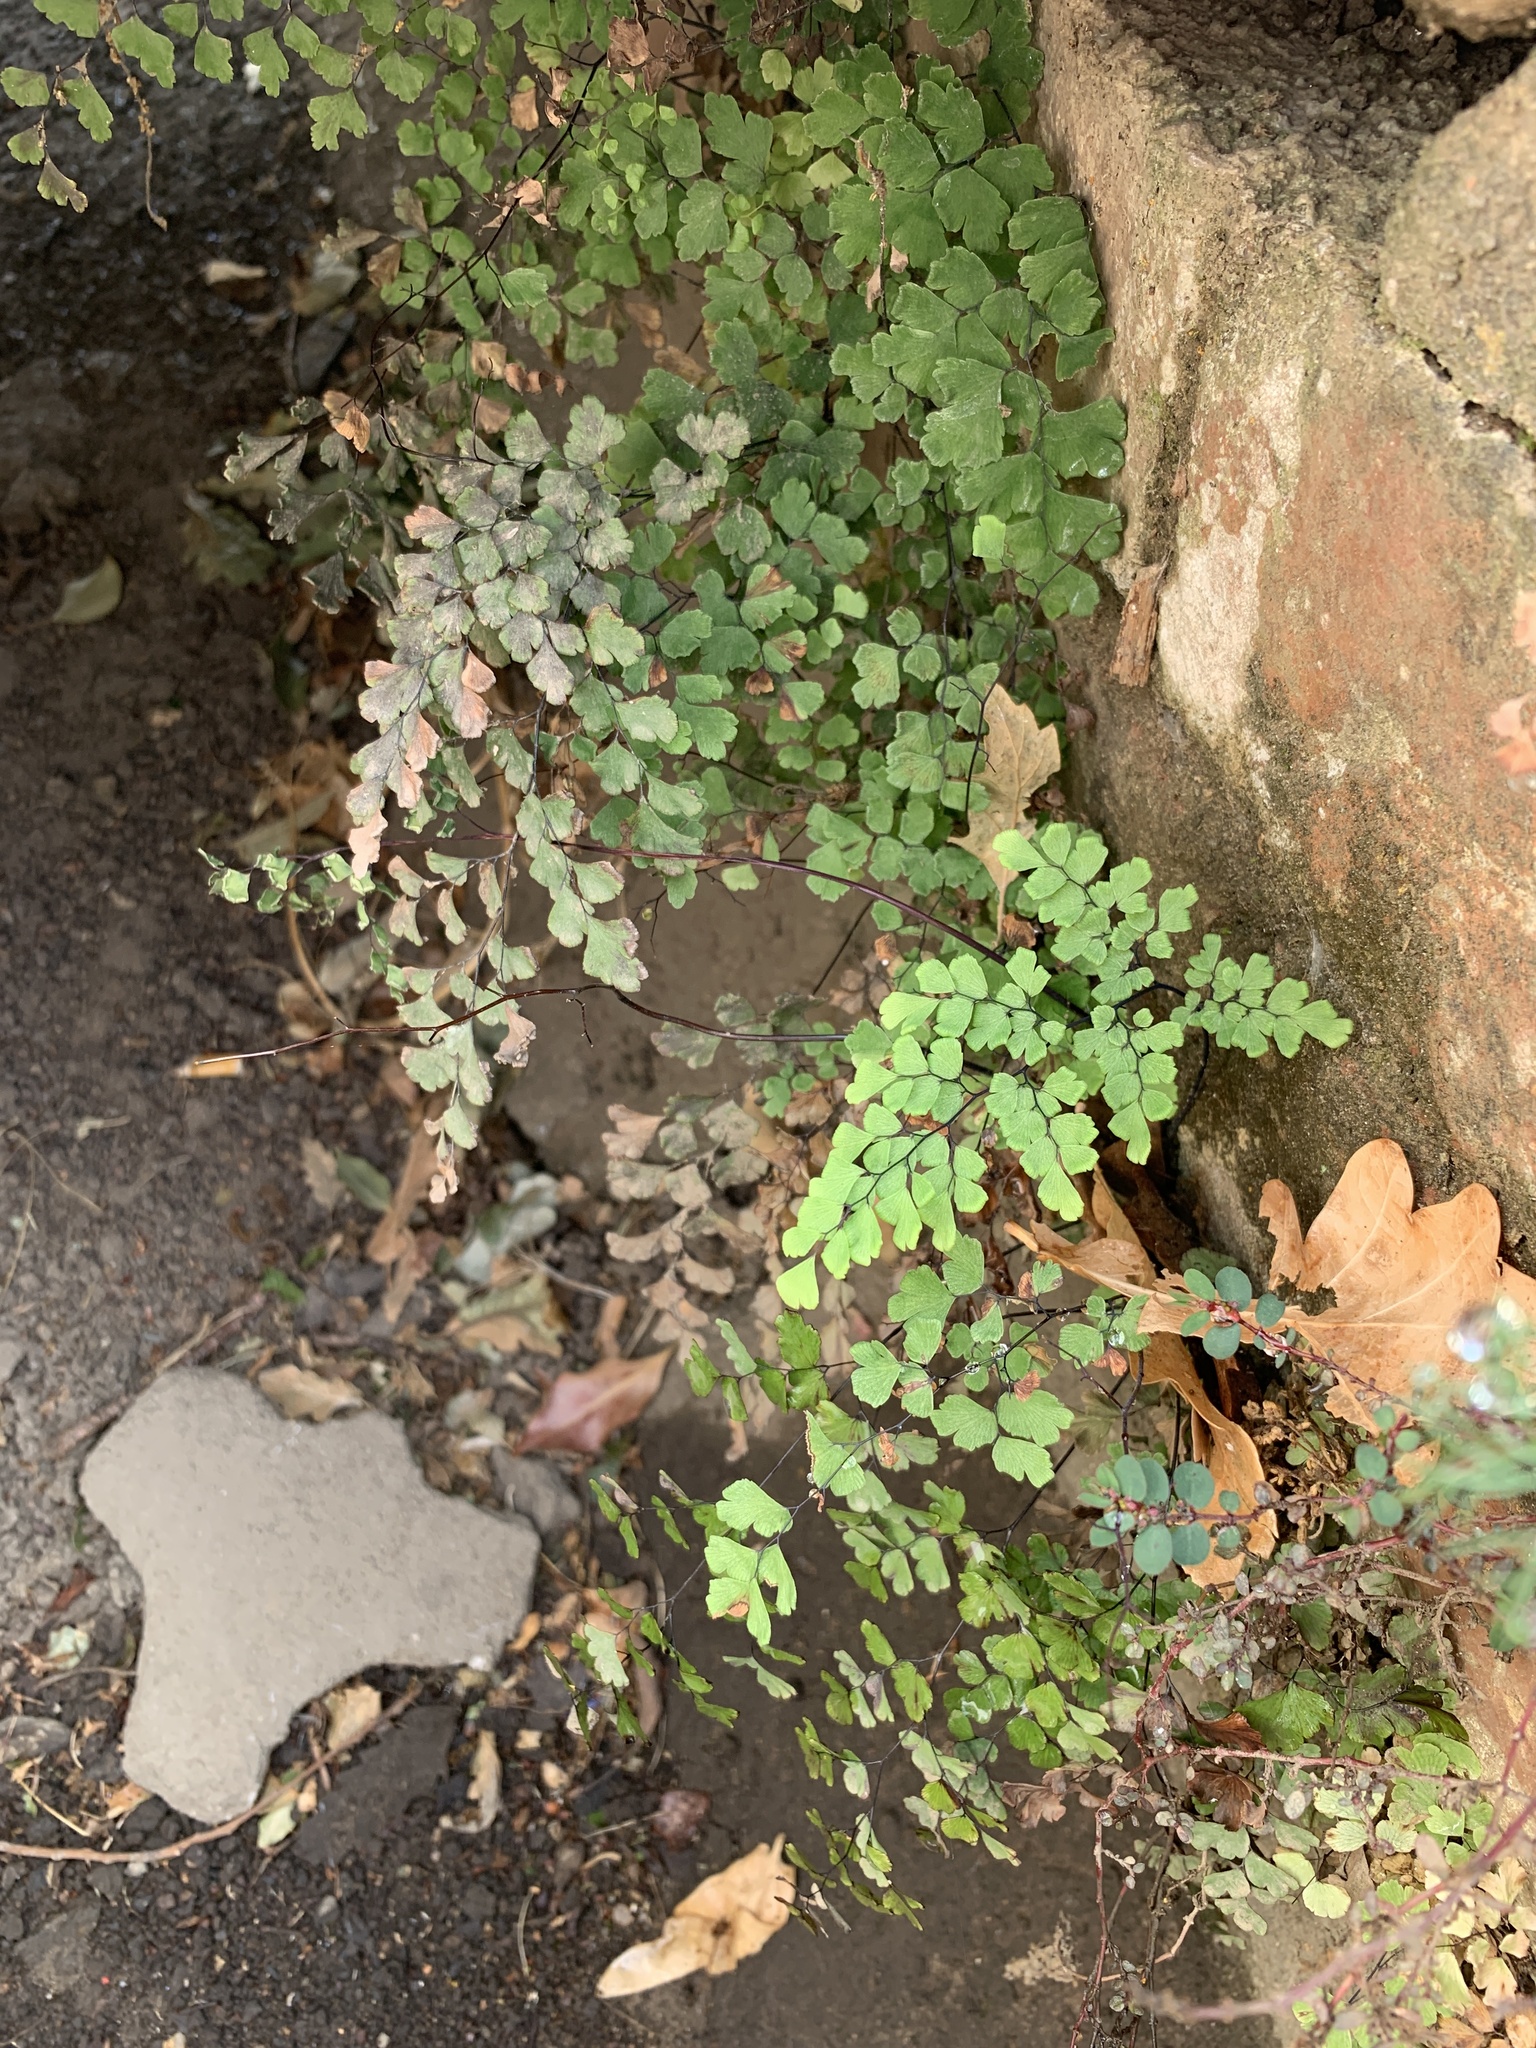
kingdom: Plantae
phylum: Tracheophyta
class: Polypodiopsida
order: Polypodiales
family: Pteridaceae
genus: Adiantum
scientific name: Adiantum capillus-veneris
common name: Maidenhair fern
